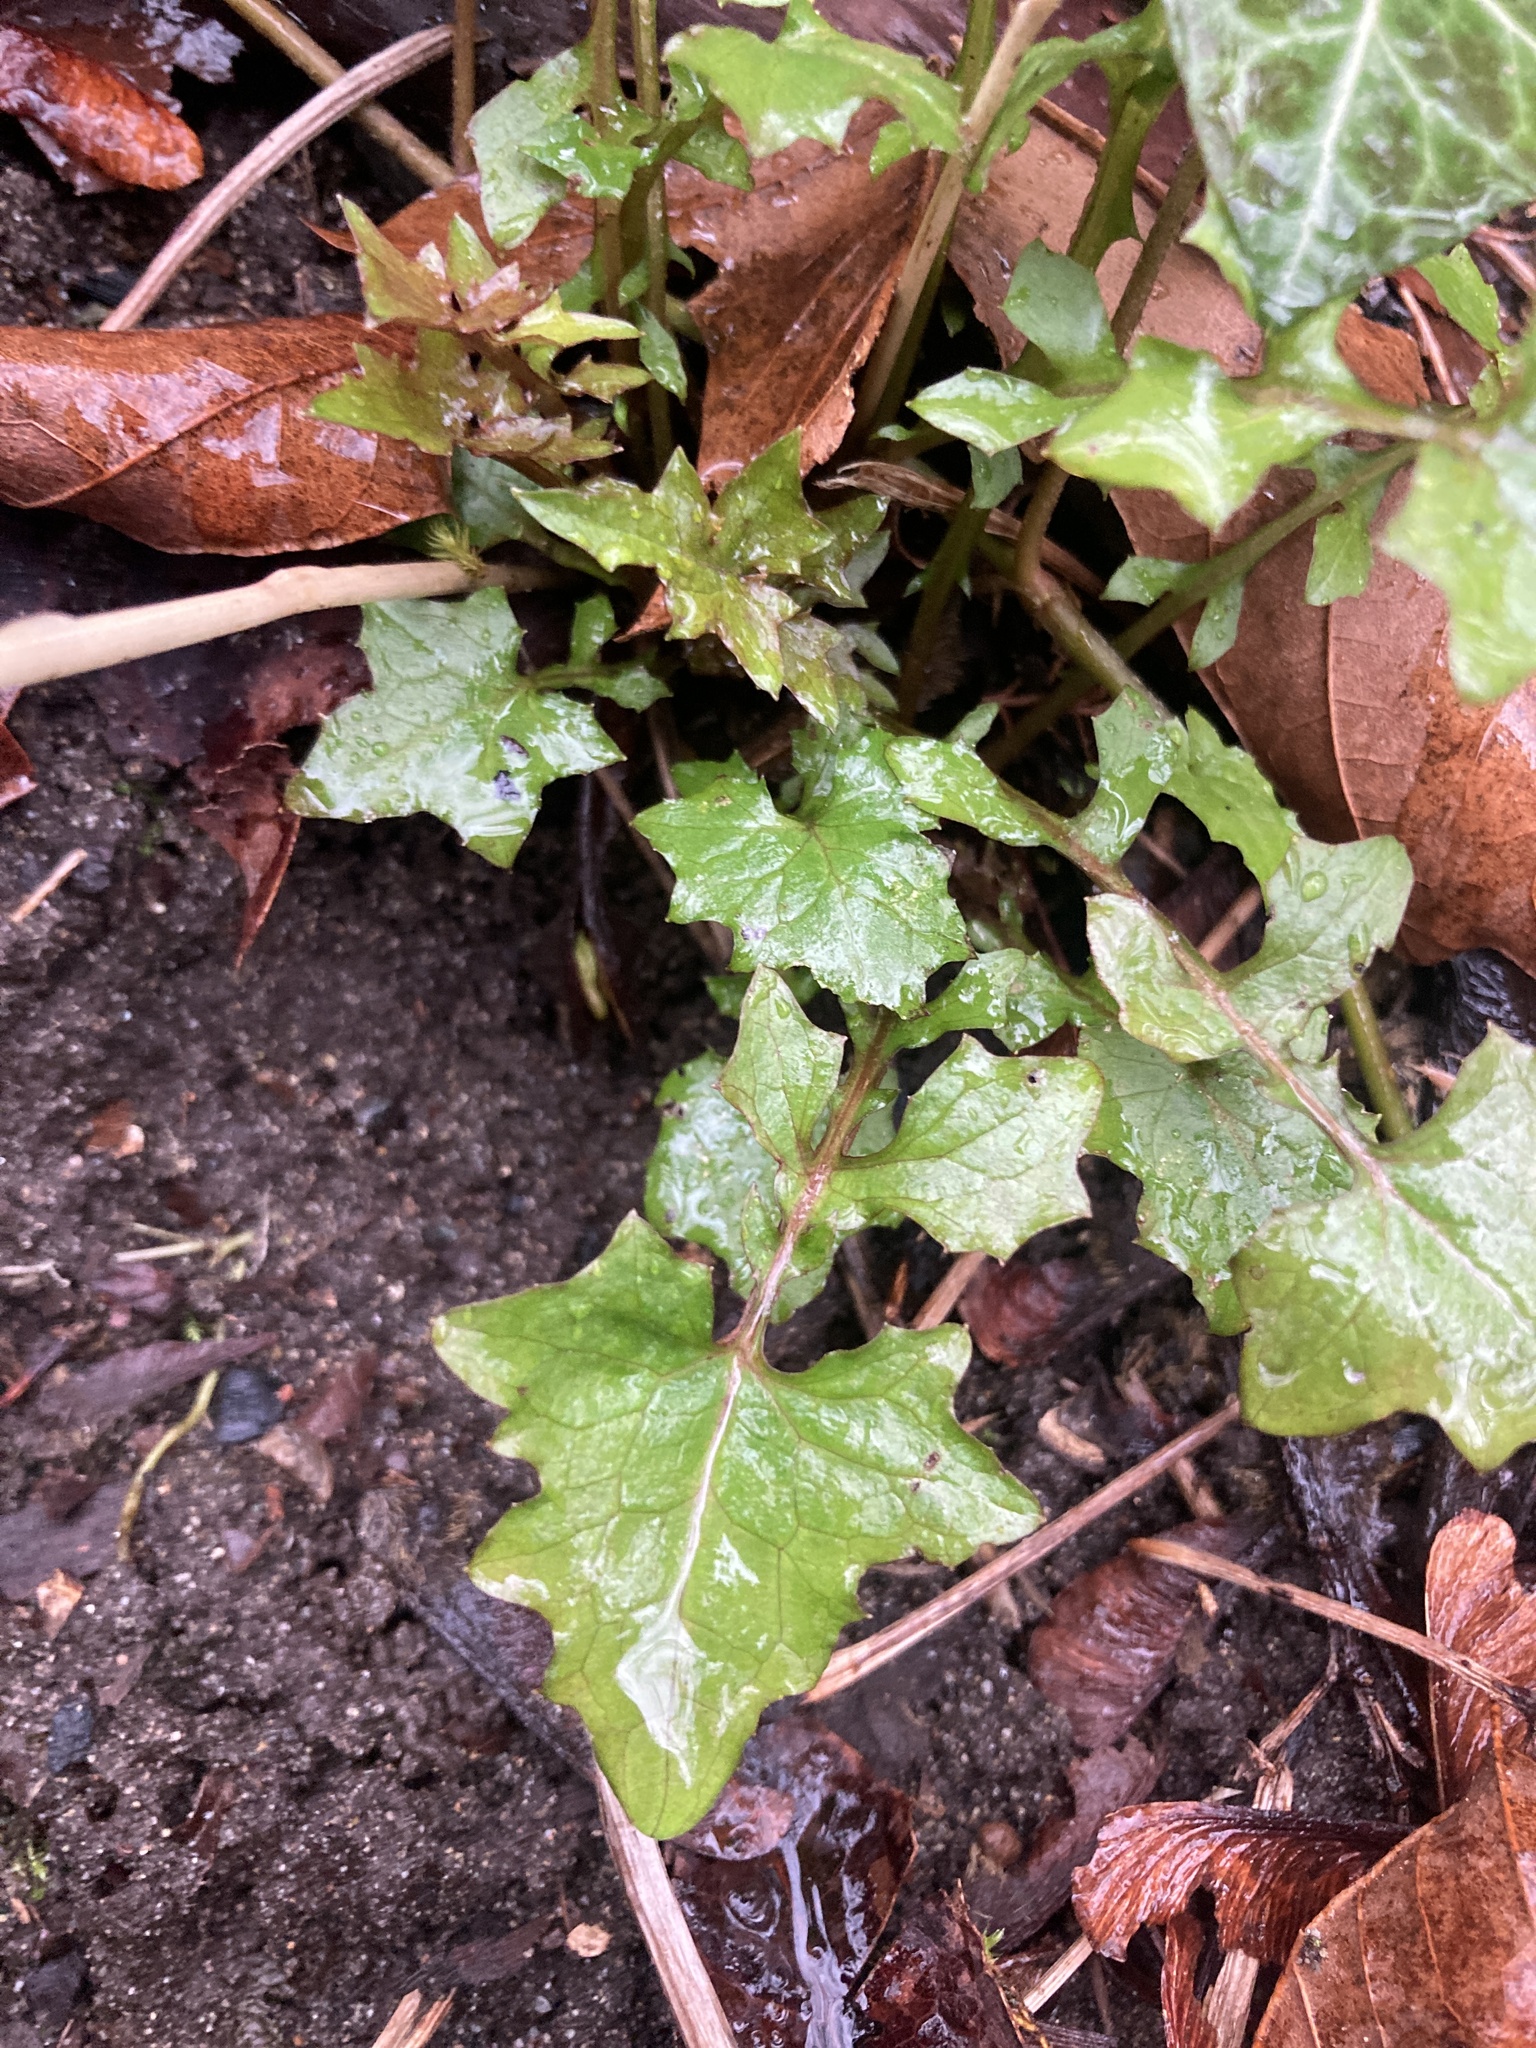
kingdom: Plantae
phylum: Tracheophyta
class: Magnoliopsida
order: Asterales
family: Asteraceae
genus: Mycelis
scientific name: Mycelis muralis
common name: Wall lettuce
